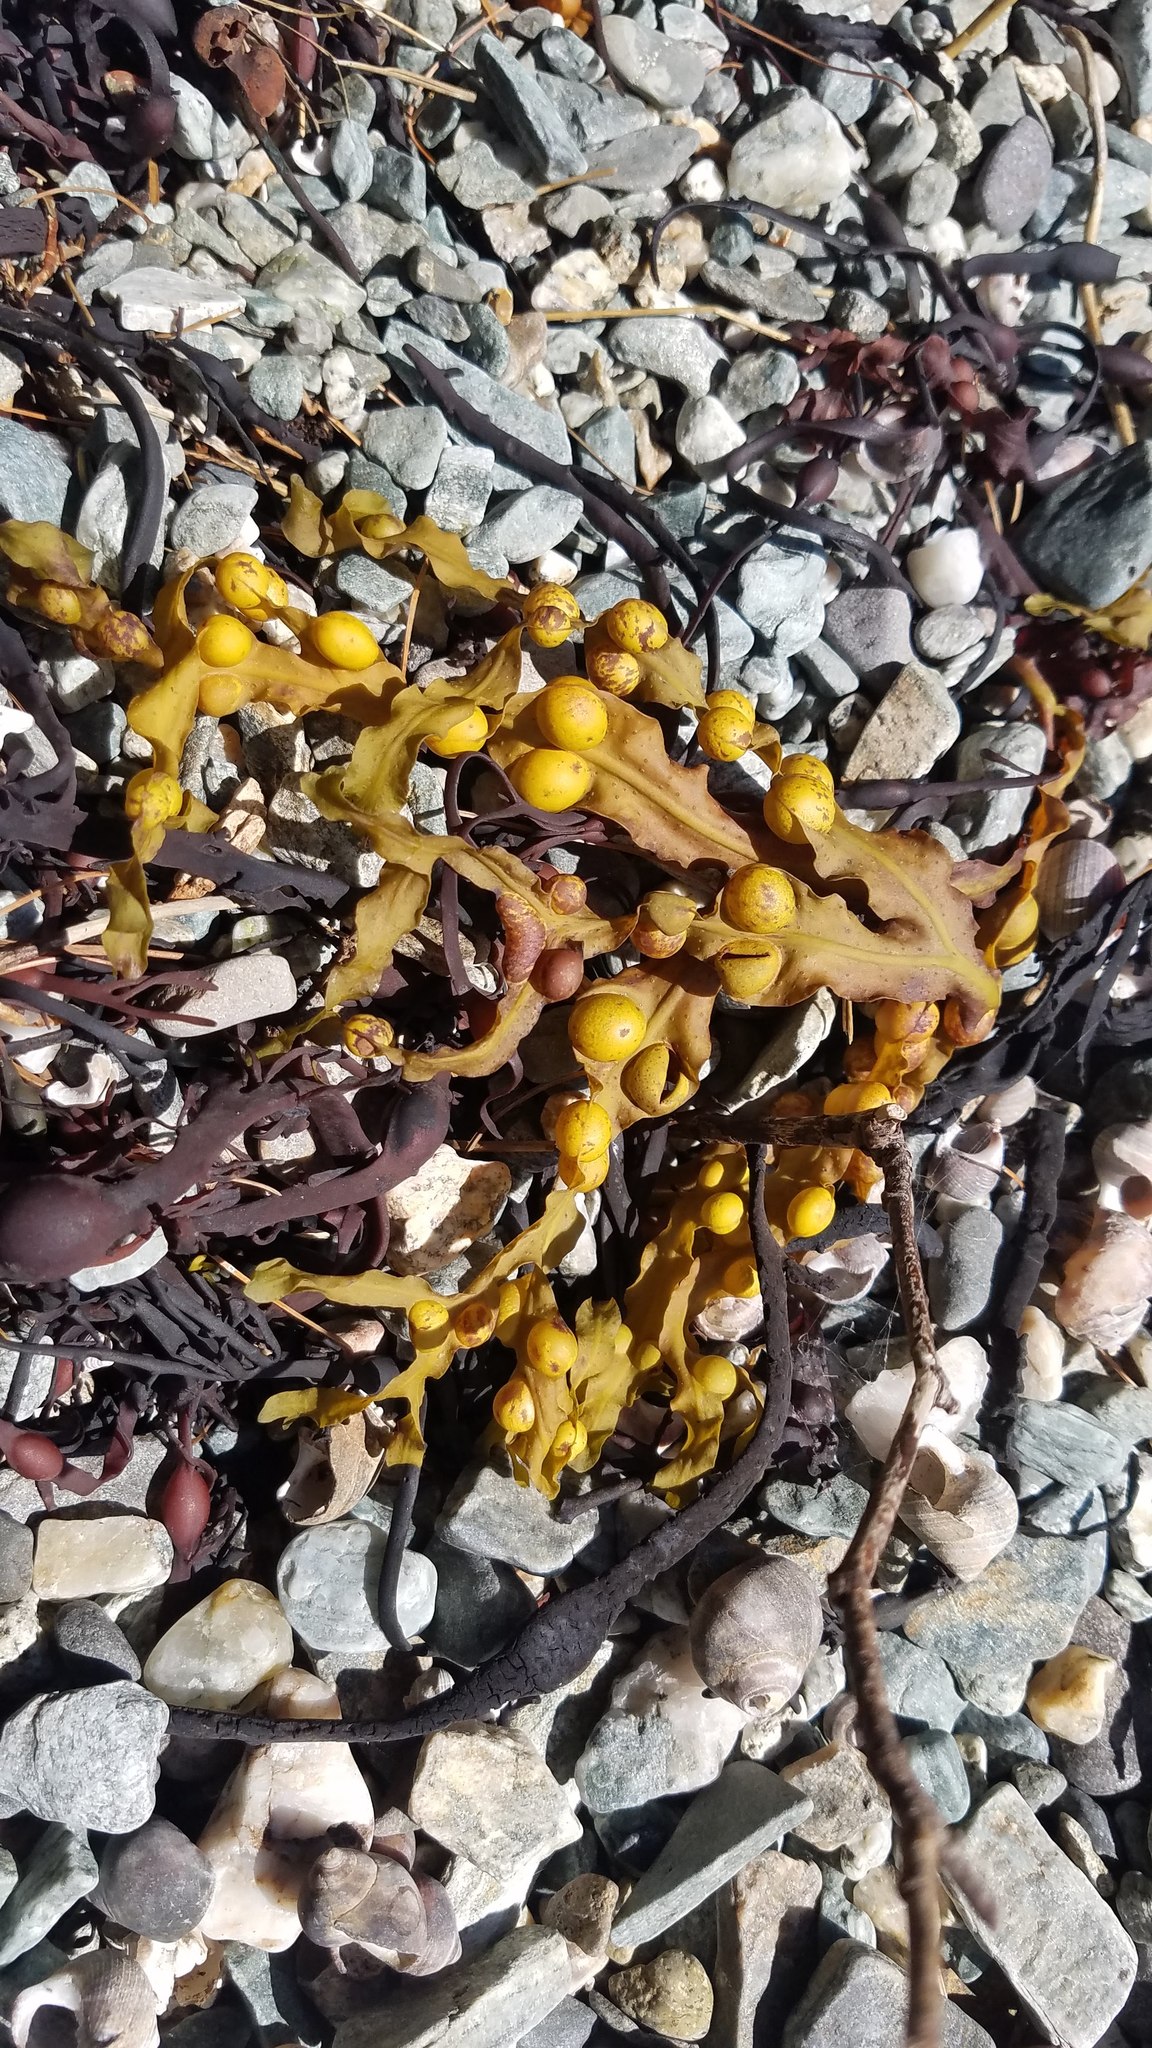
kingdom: Chromista
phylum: Ochrophyta
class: Phaeophyceae
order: Fucales
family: Fucaceae
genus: Fucus
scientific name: Fucus vesiculosus
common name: Bladder wrack
